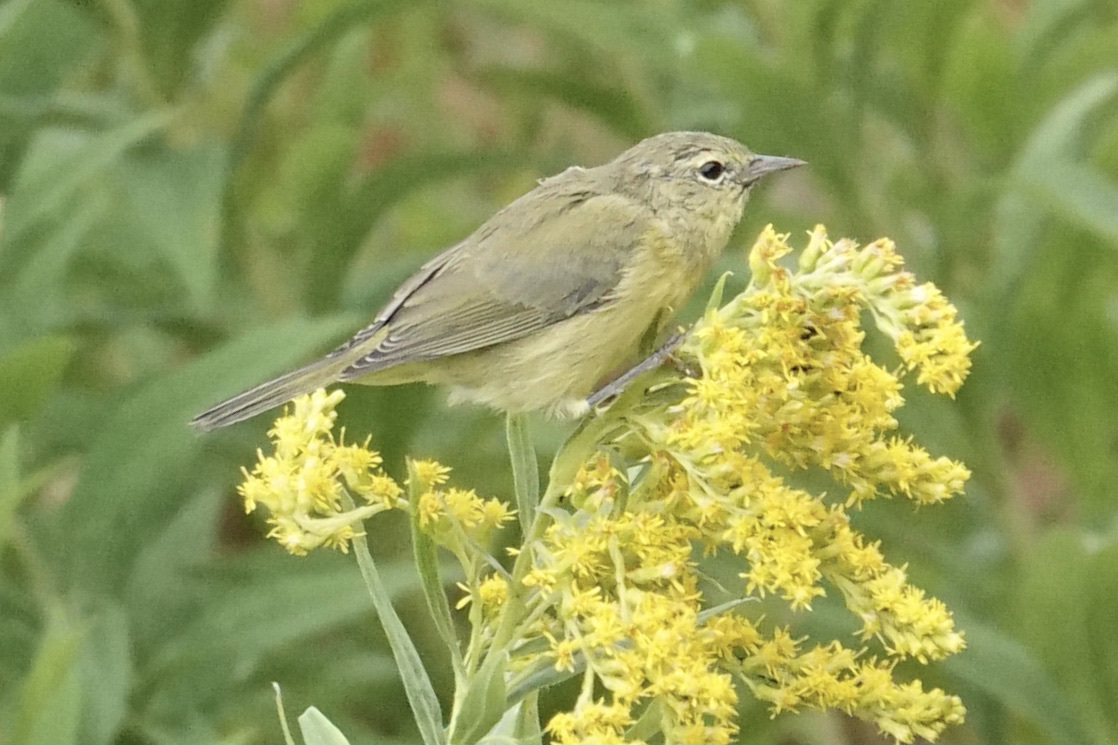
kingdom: Animalia
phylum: Chordata
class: Aves
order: Passeriformes
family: Parulidae
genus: Leiothlypis
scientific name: Leiothlypis celata
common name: Orange-crowned warbler
